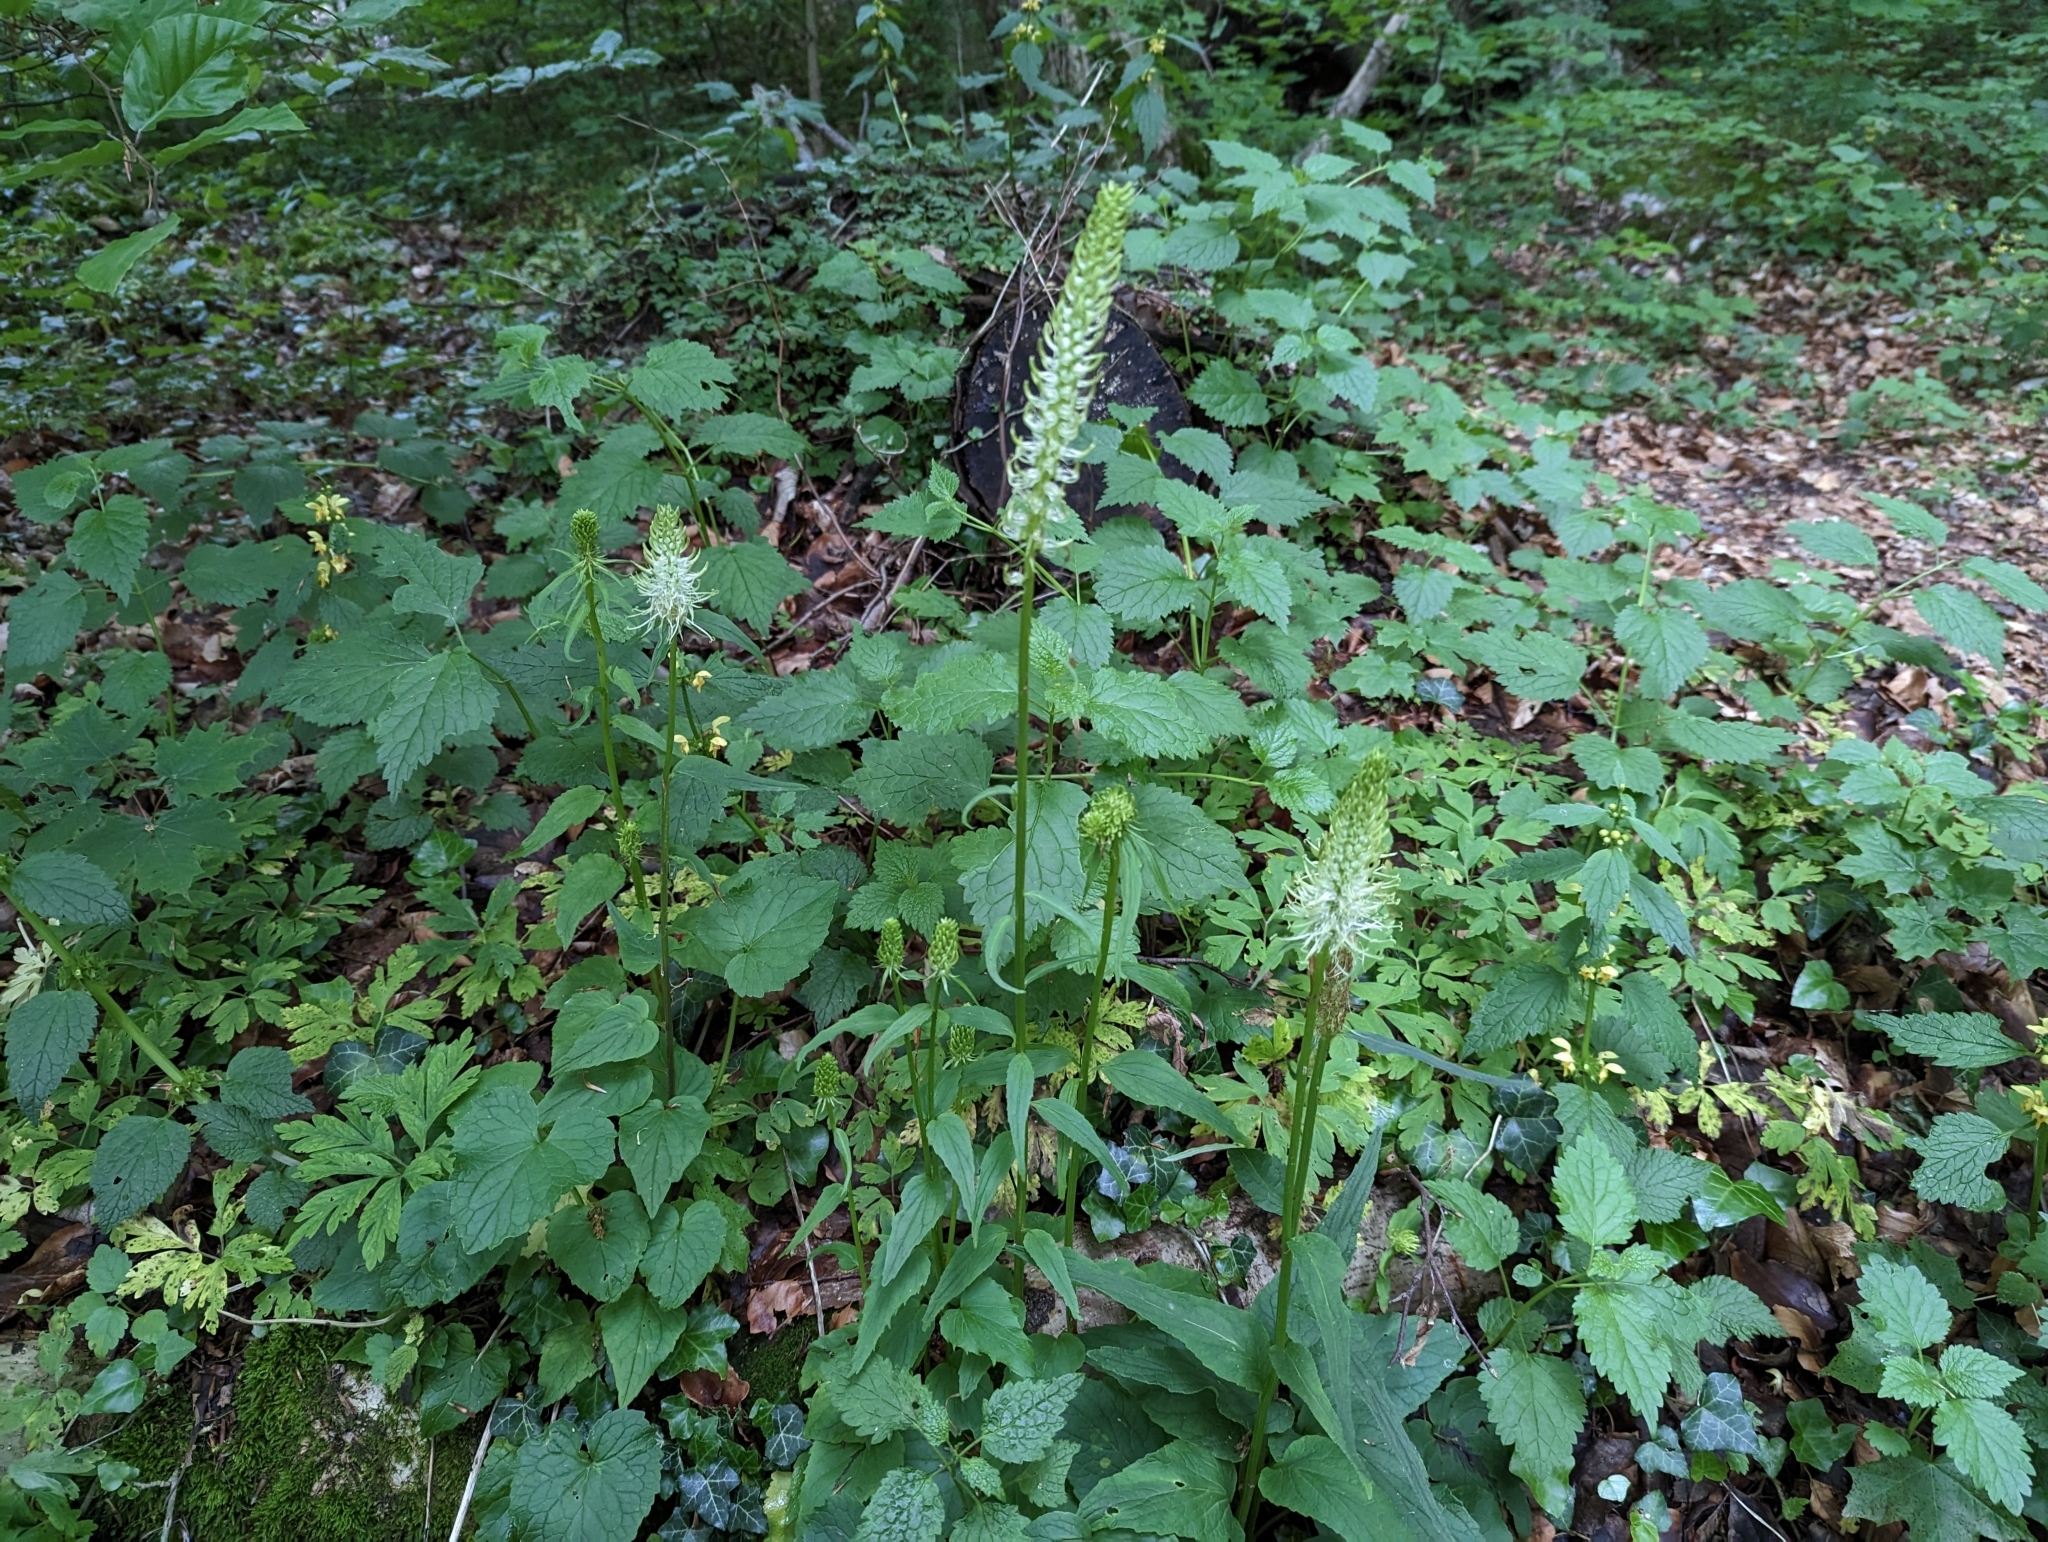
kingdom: Plantae
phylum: Tracheophyta
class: Magnoliopsida
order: Asterales
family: Campanulaceae
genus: Phyteuma
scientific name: Phyteuma spicatum
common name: Spiked rampion
